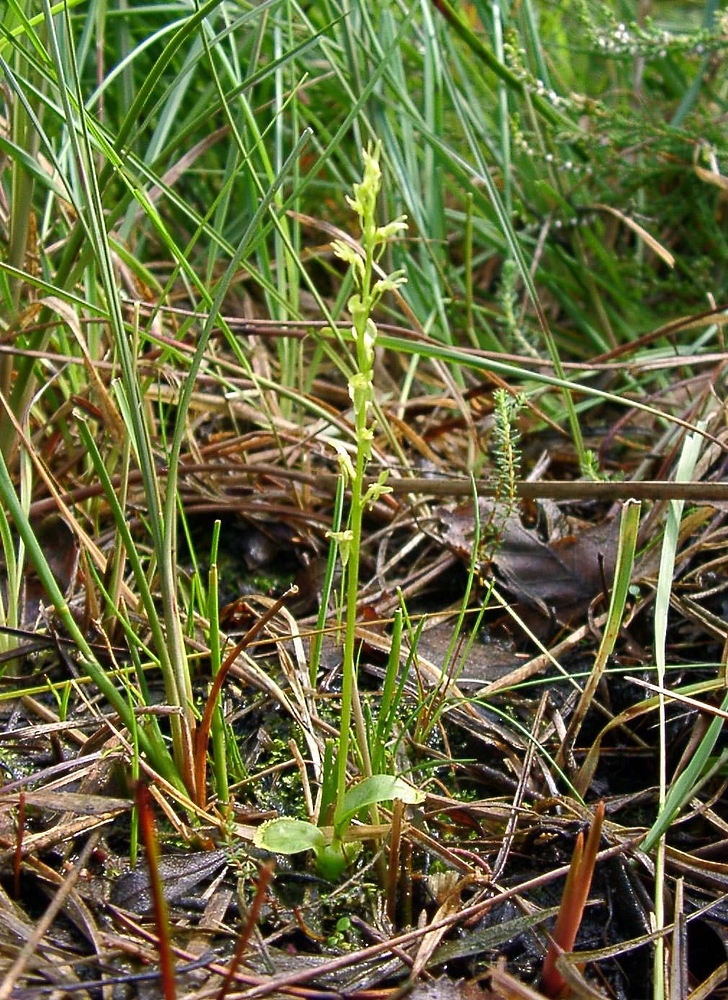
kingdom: Plantae
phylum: Tracheophyta
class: Liliopsida
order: Asparagales
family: Orchidaceae
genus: Hammarbya
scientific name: Hammarbya paludosa
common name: Bog orchid
